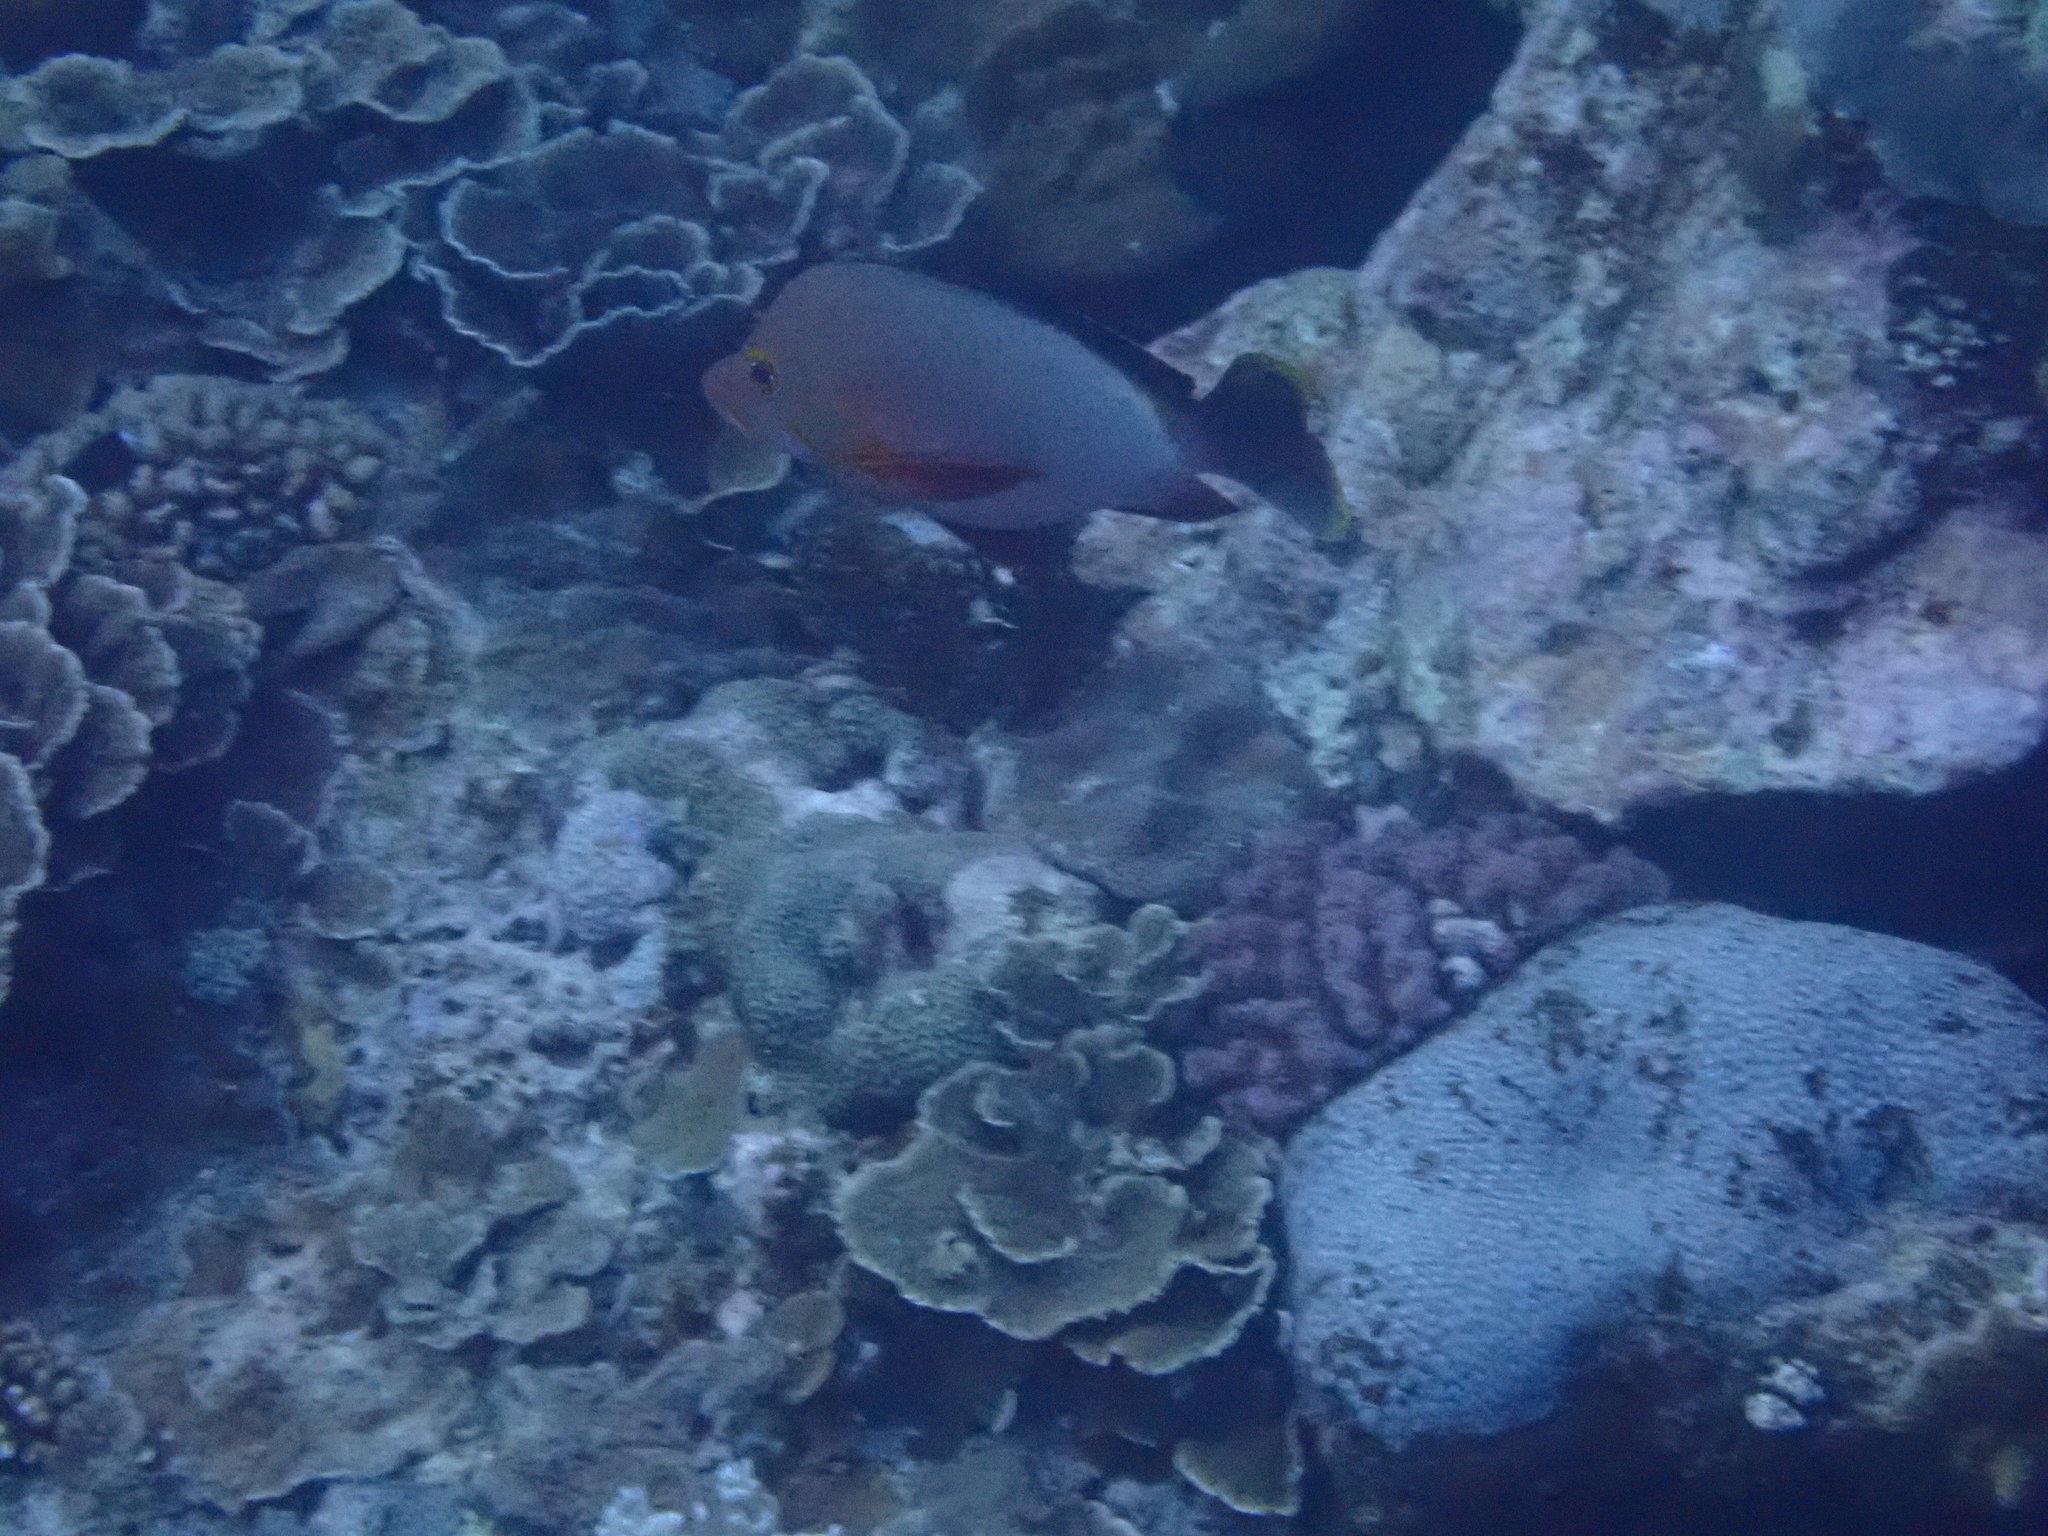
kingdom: Animalia
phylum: Chordata
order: Perciformes
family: Lutjanidae
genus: Lutjanus
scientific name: Lutjanus gibbus
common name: Humpback snapper
